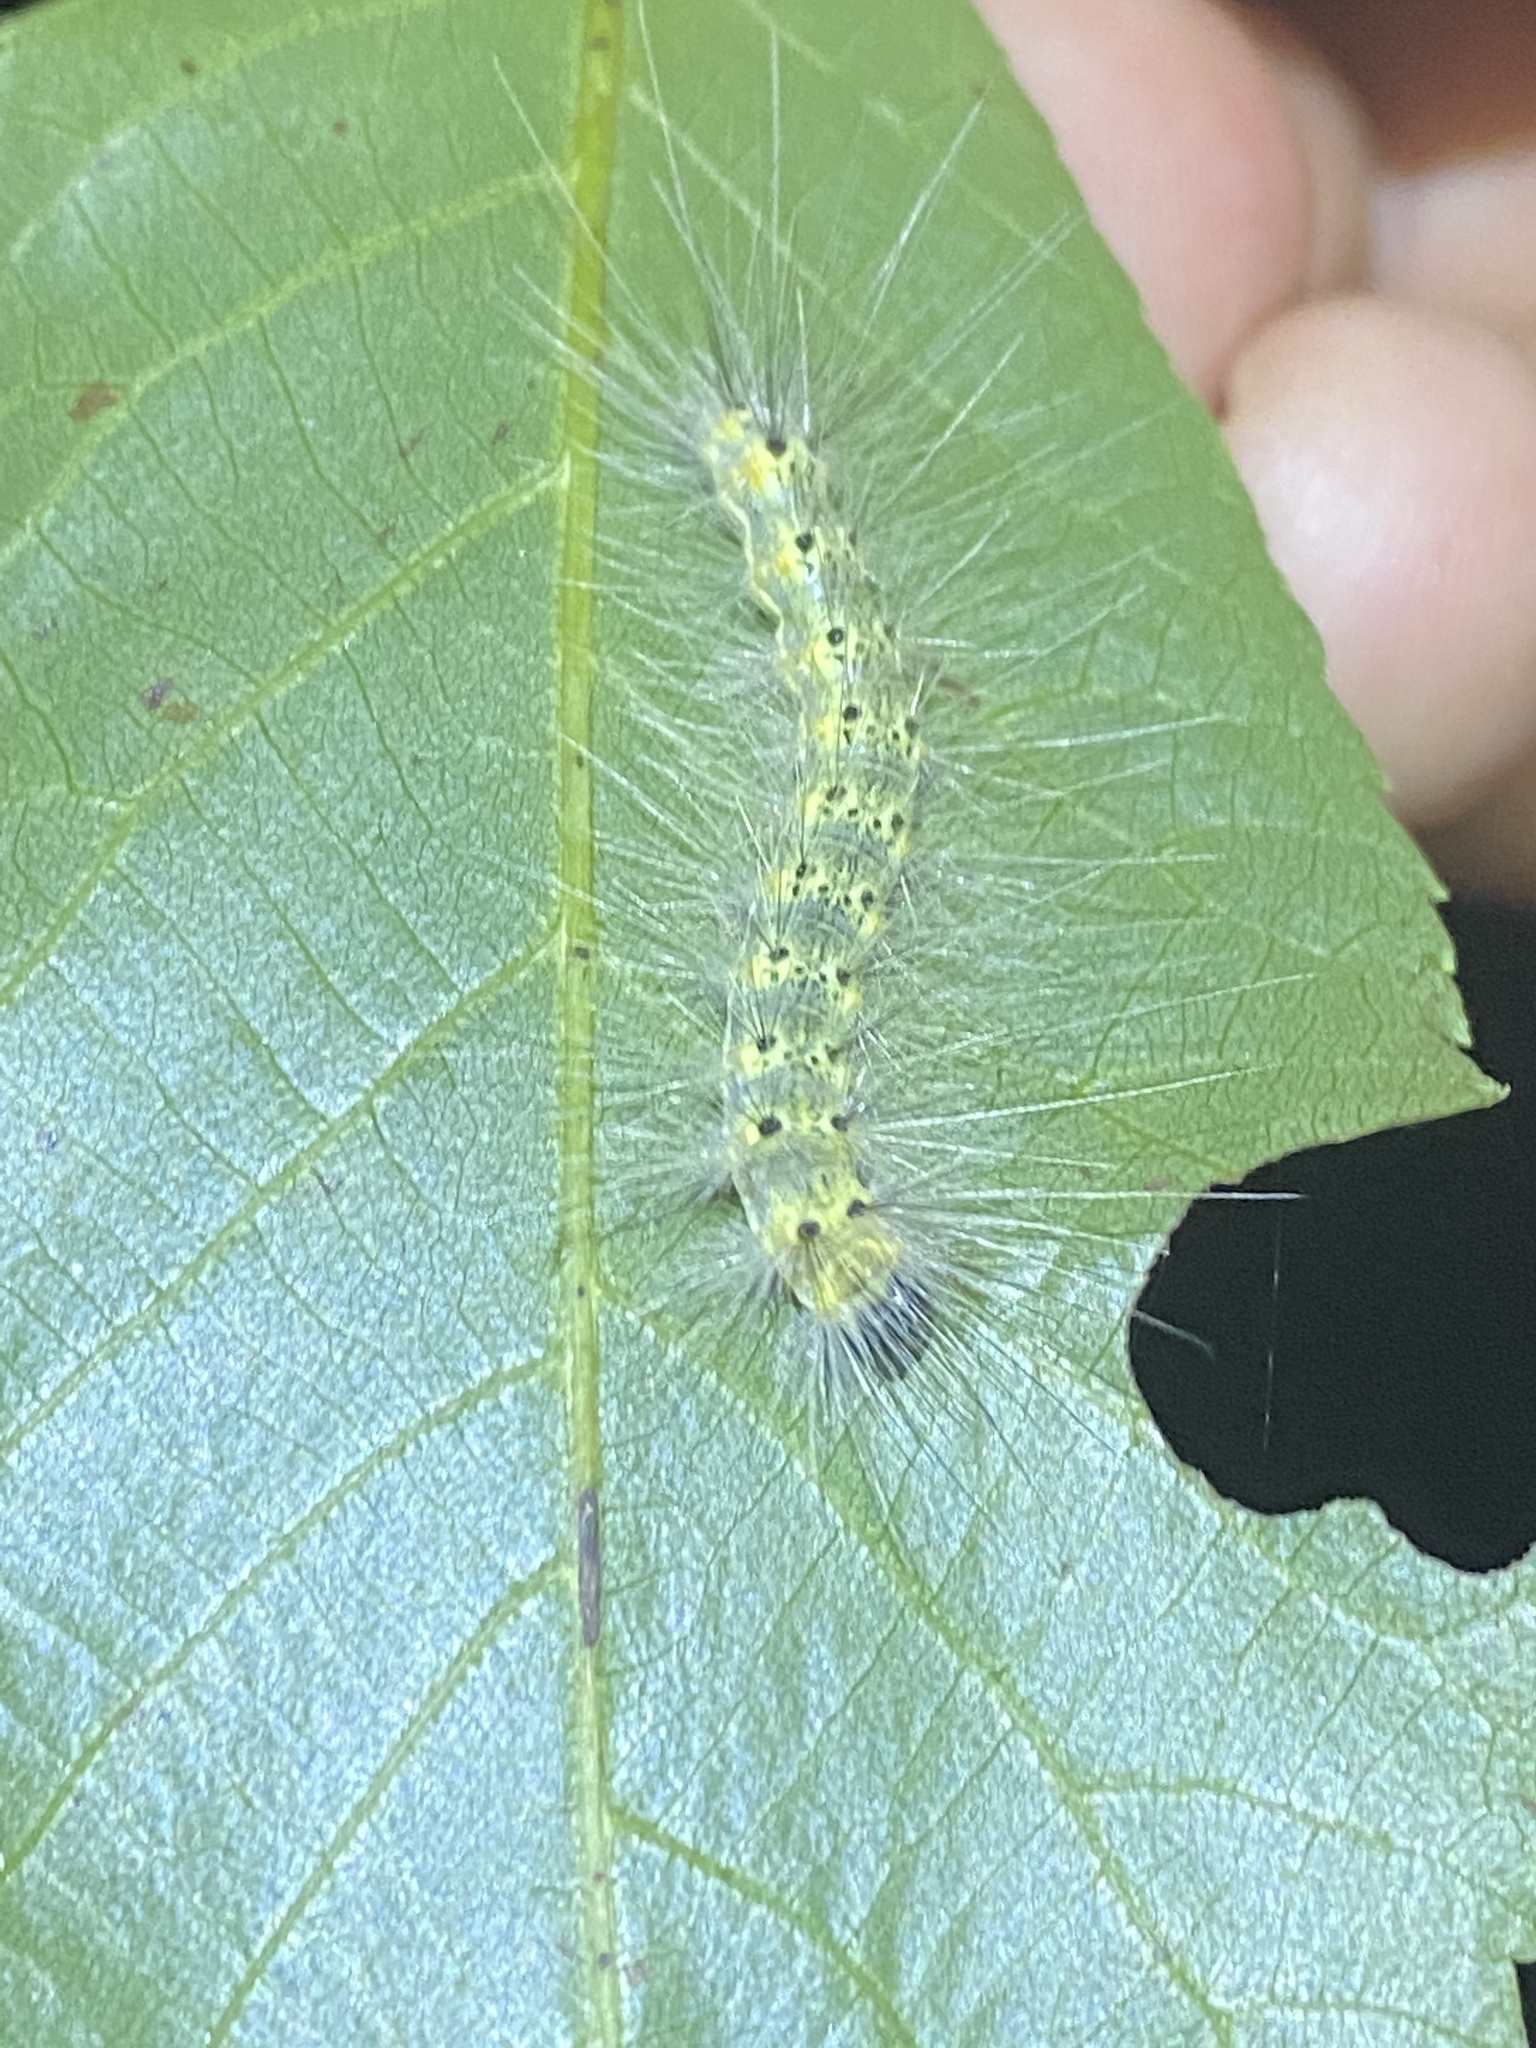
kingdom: Animalia
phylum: Arthropoda
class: Insecta
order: Lepidoptera
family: Erebidae
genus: Hyphantria
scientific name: Hyphantria cunea
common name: American white moth
